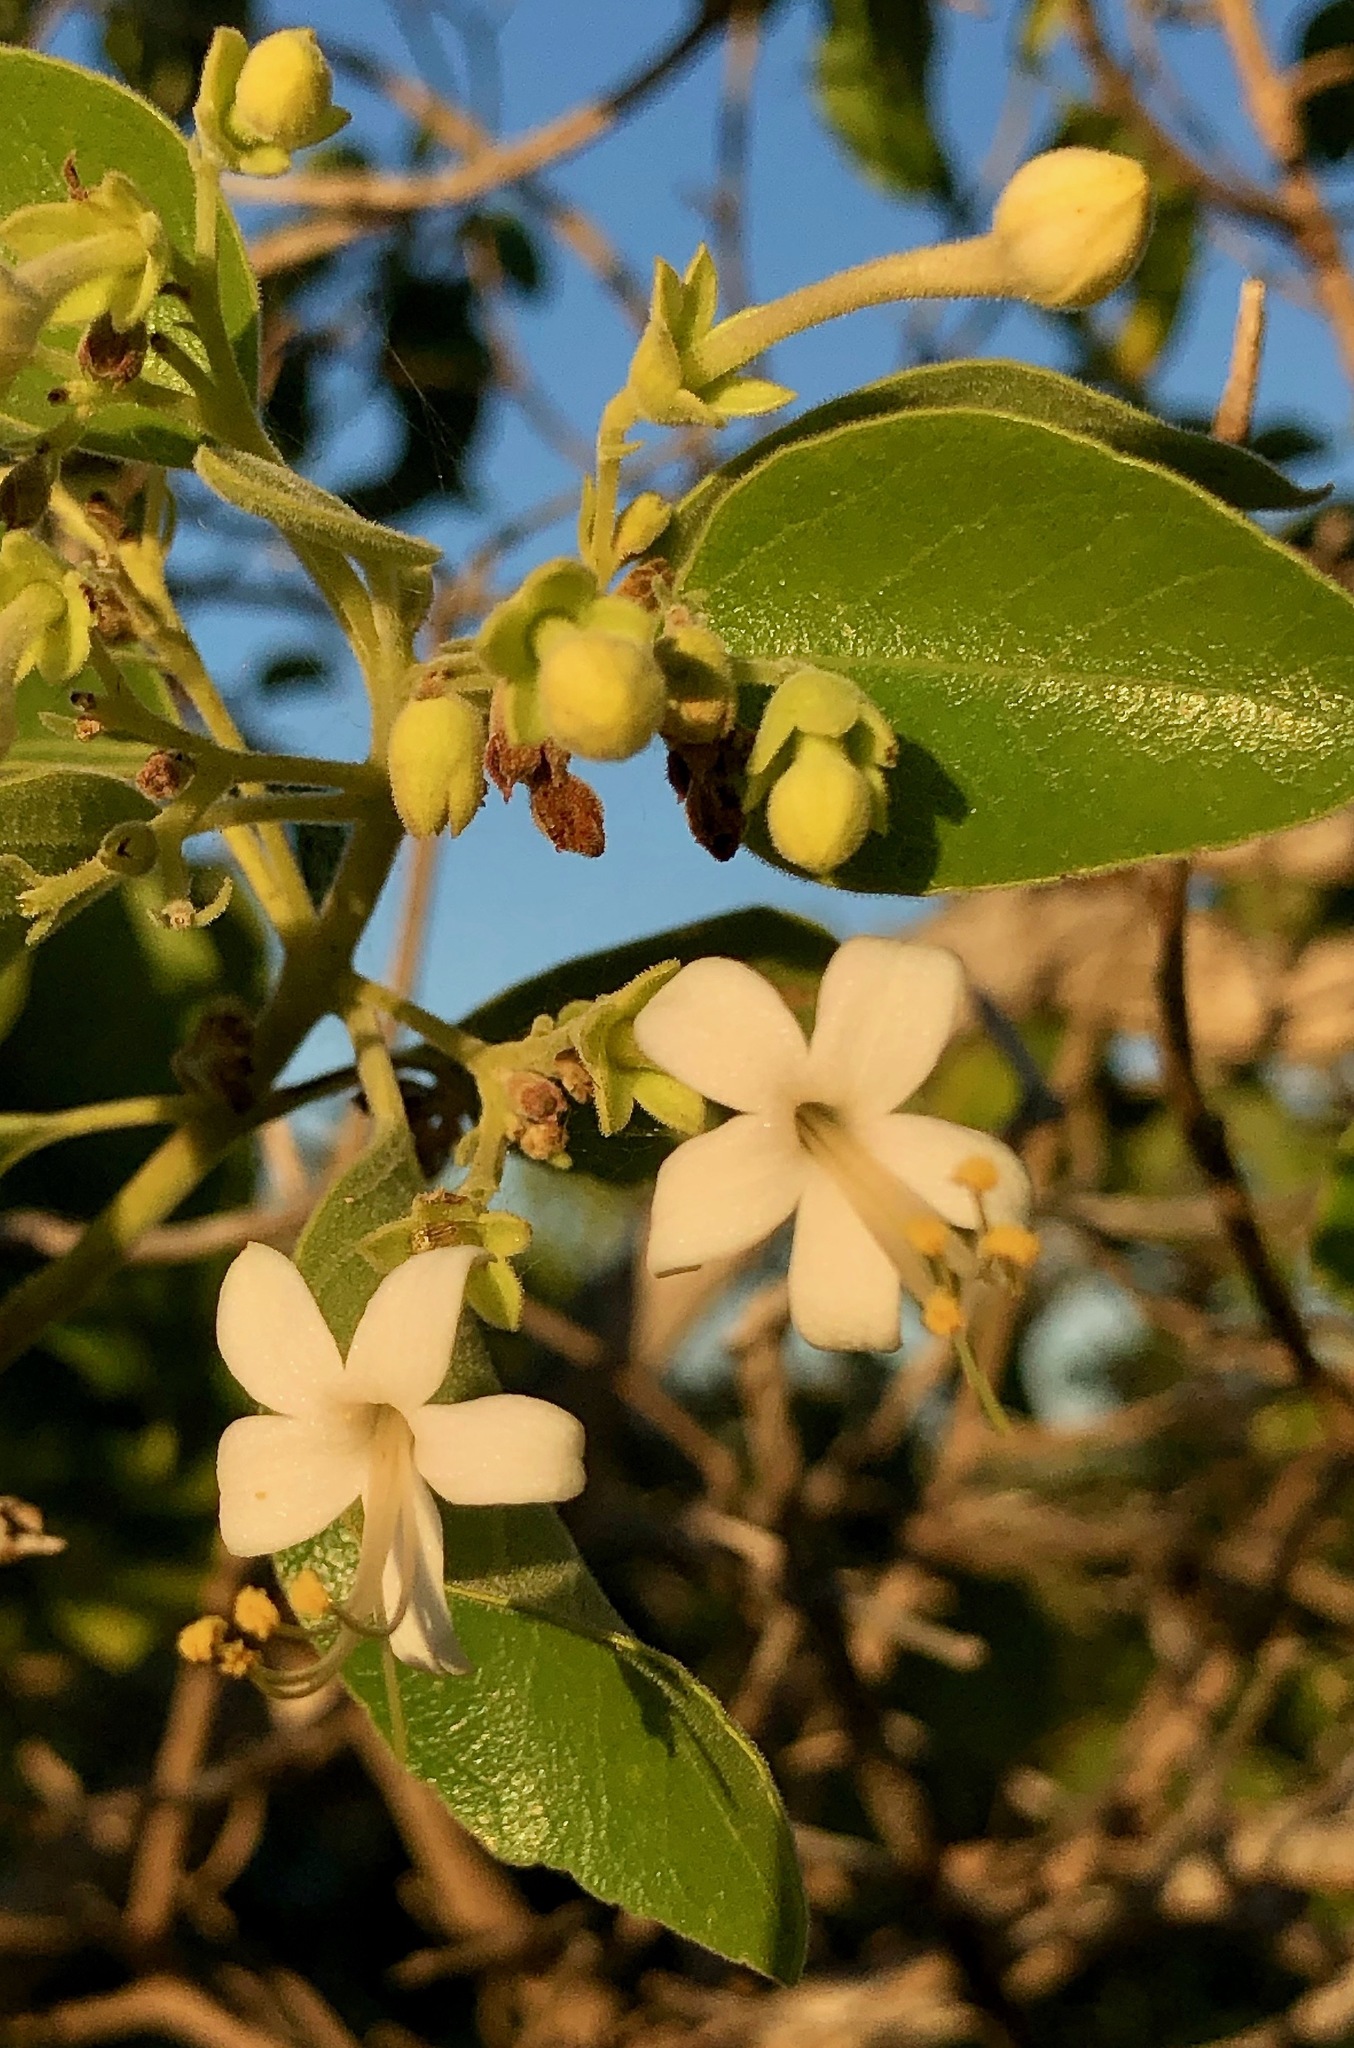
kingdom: Plantae
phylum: Tracheophyta
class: Magnoliopsida
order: Lamiales
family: Lamiaceae
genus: Clerodendrum
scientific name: Clerodendrum tomentosum
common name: Hairy clerodendrum
